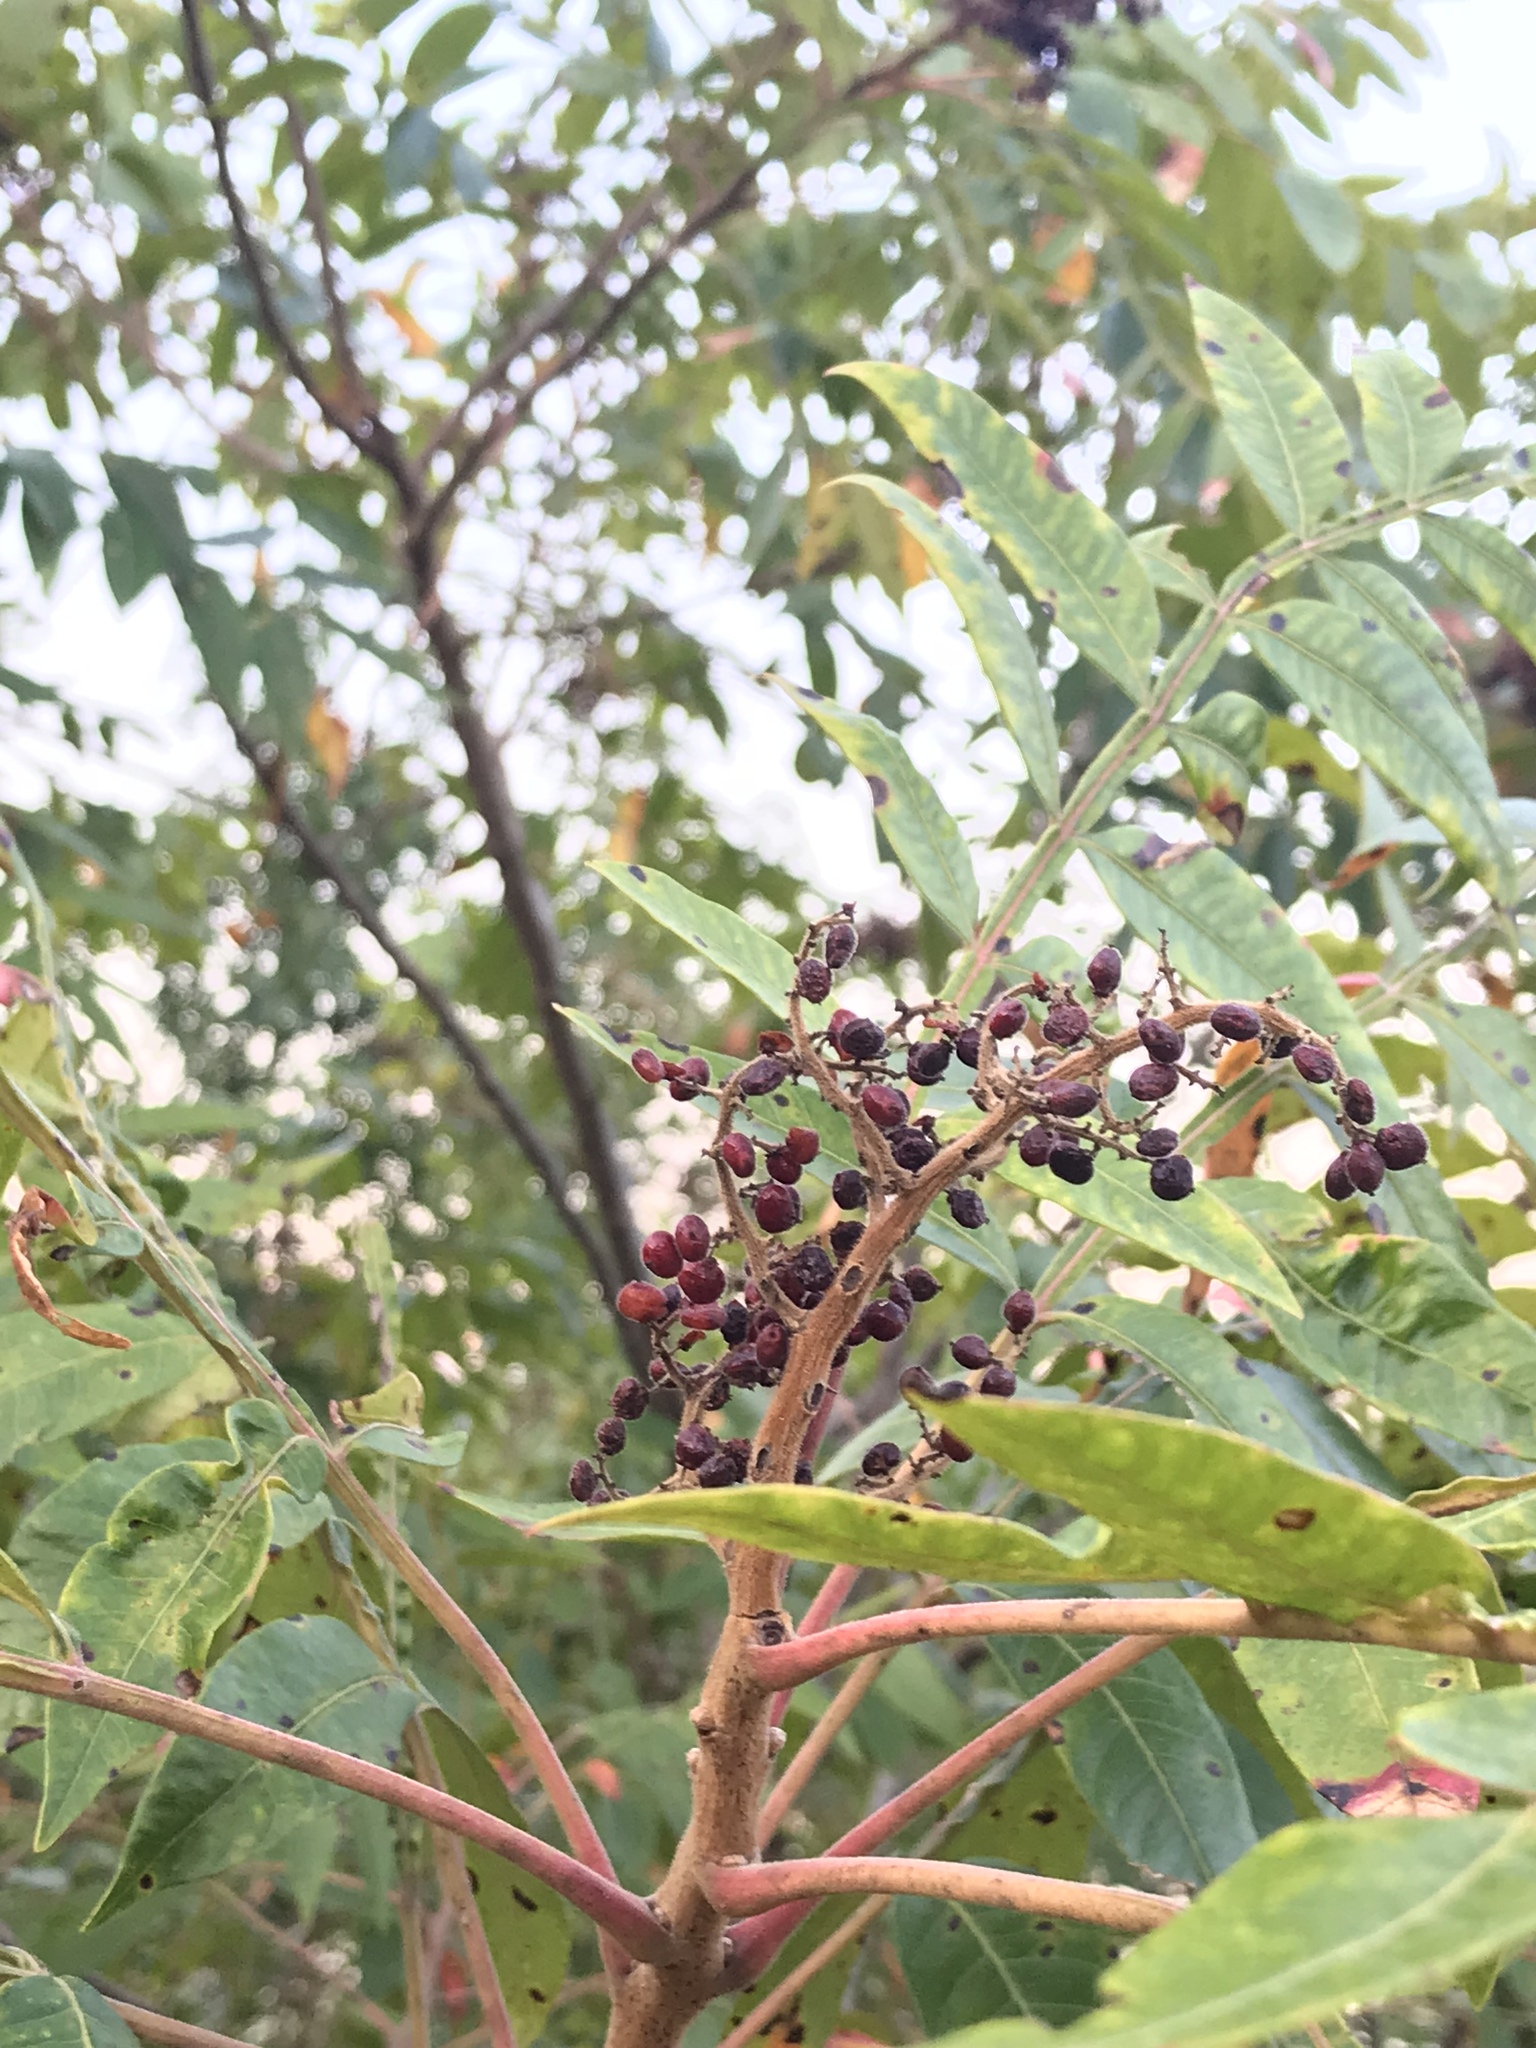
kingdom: Plantae
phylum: Tracheophyta
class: Magnoliopsida
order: Sapindales
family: Anacardiaceae
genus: Rhus
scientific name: Rhus copallina
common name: Shining sumac
